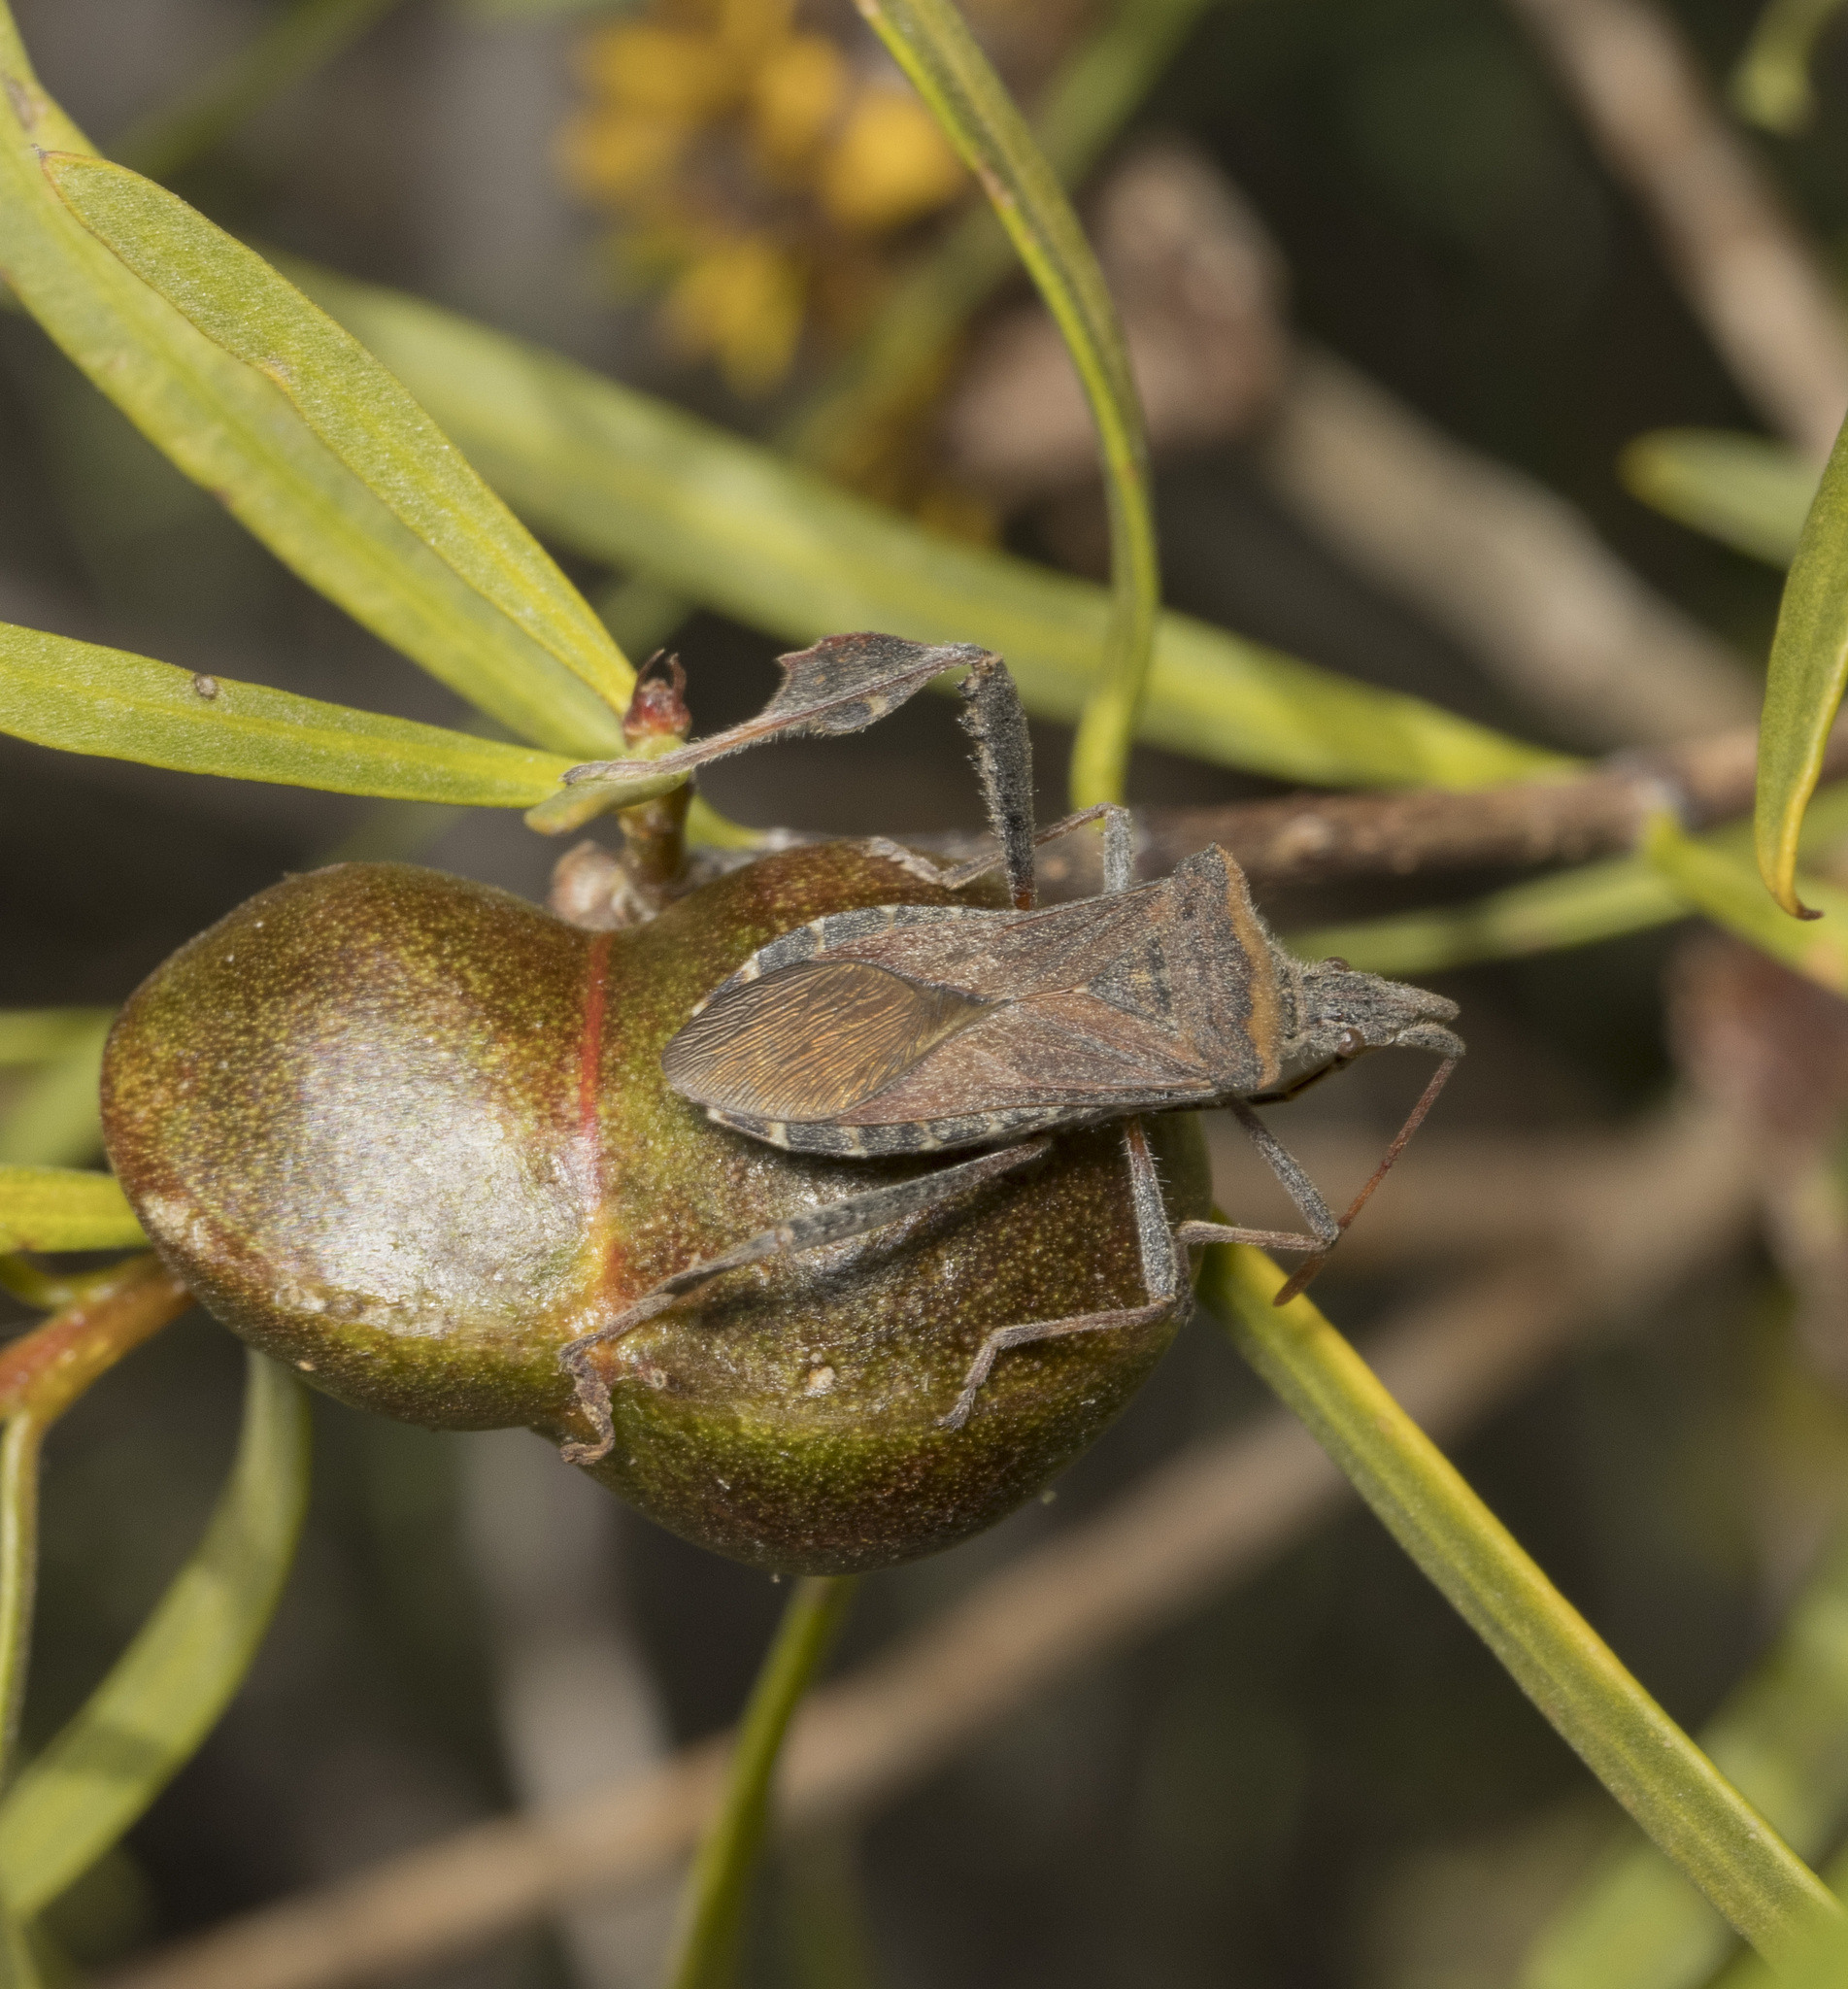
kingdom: Animalia
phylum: Arthropoda
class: Insecta
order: Hemiptera
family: Coreidae
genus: Leptoglossus
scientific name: Leptoglossus chilensis
